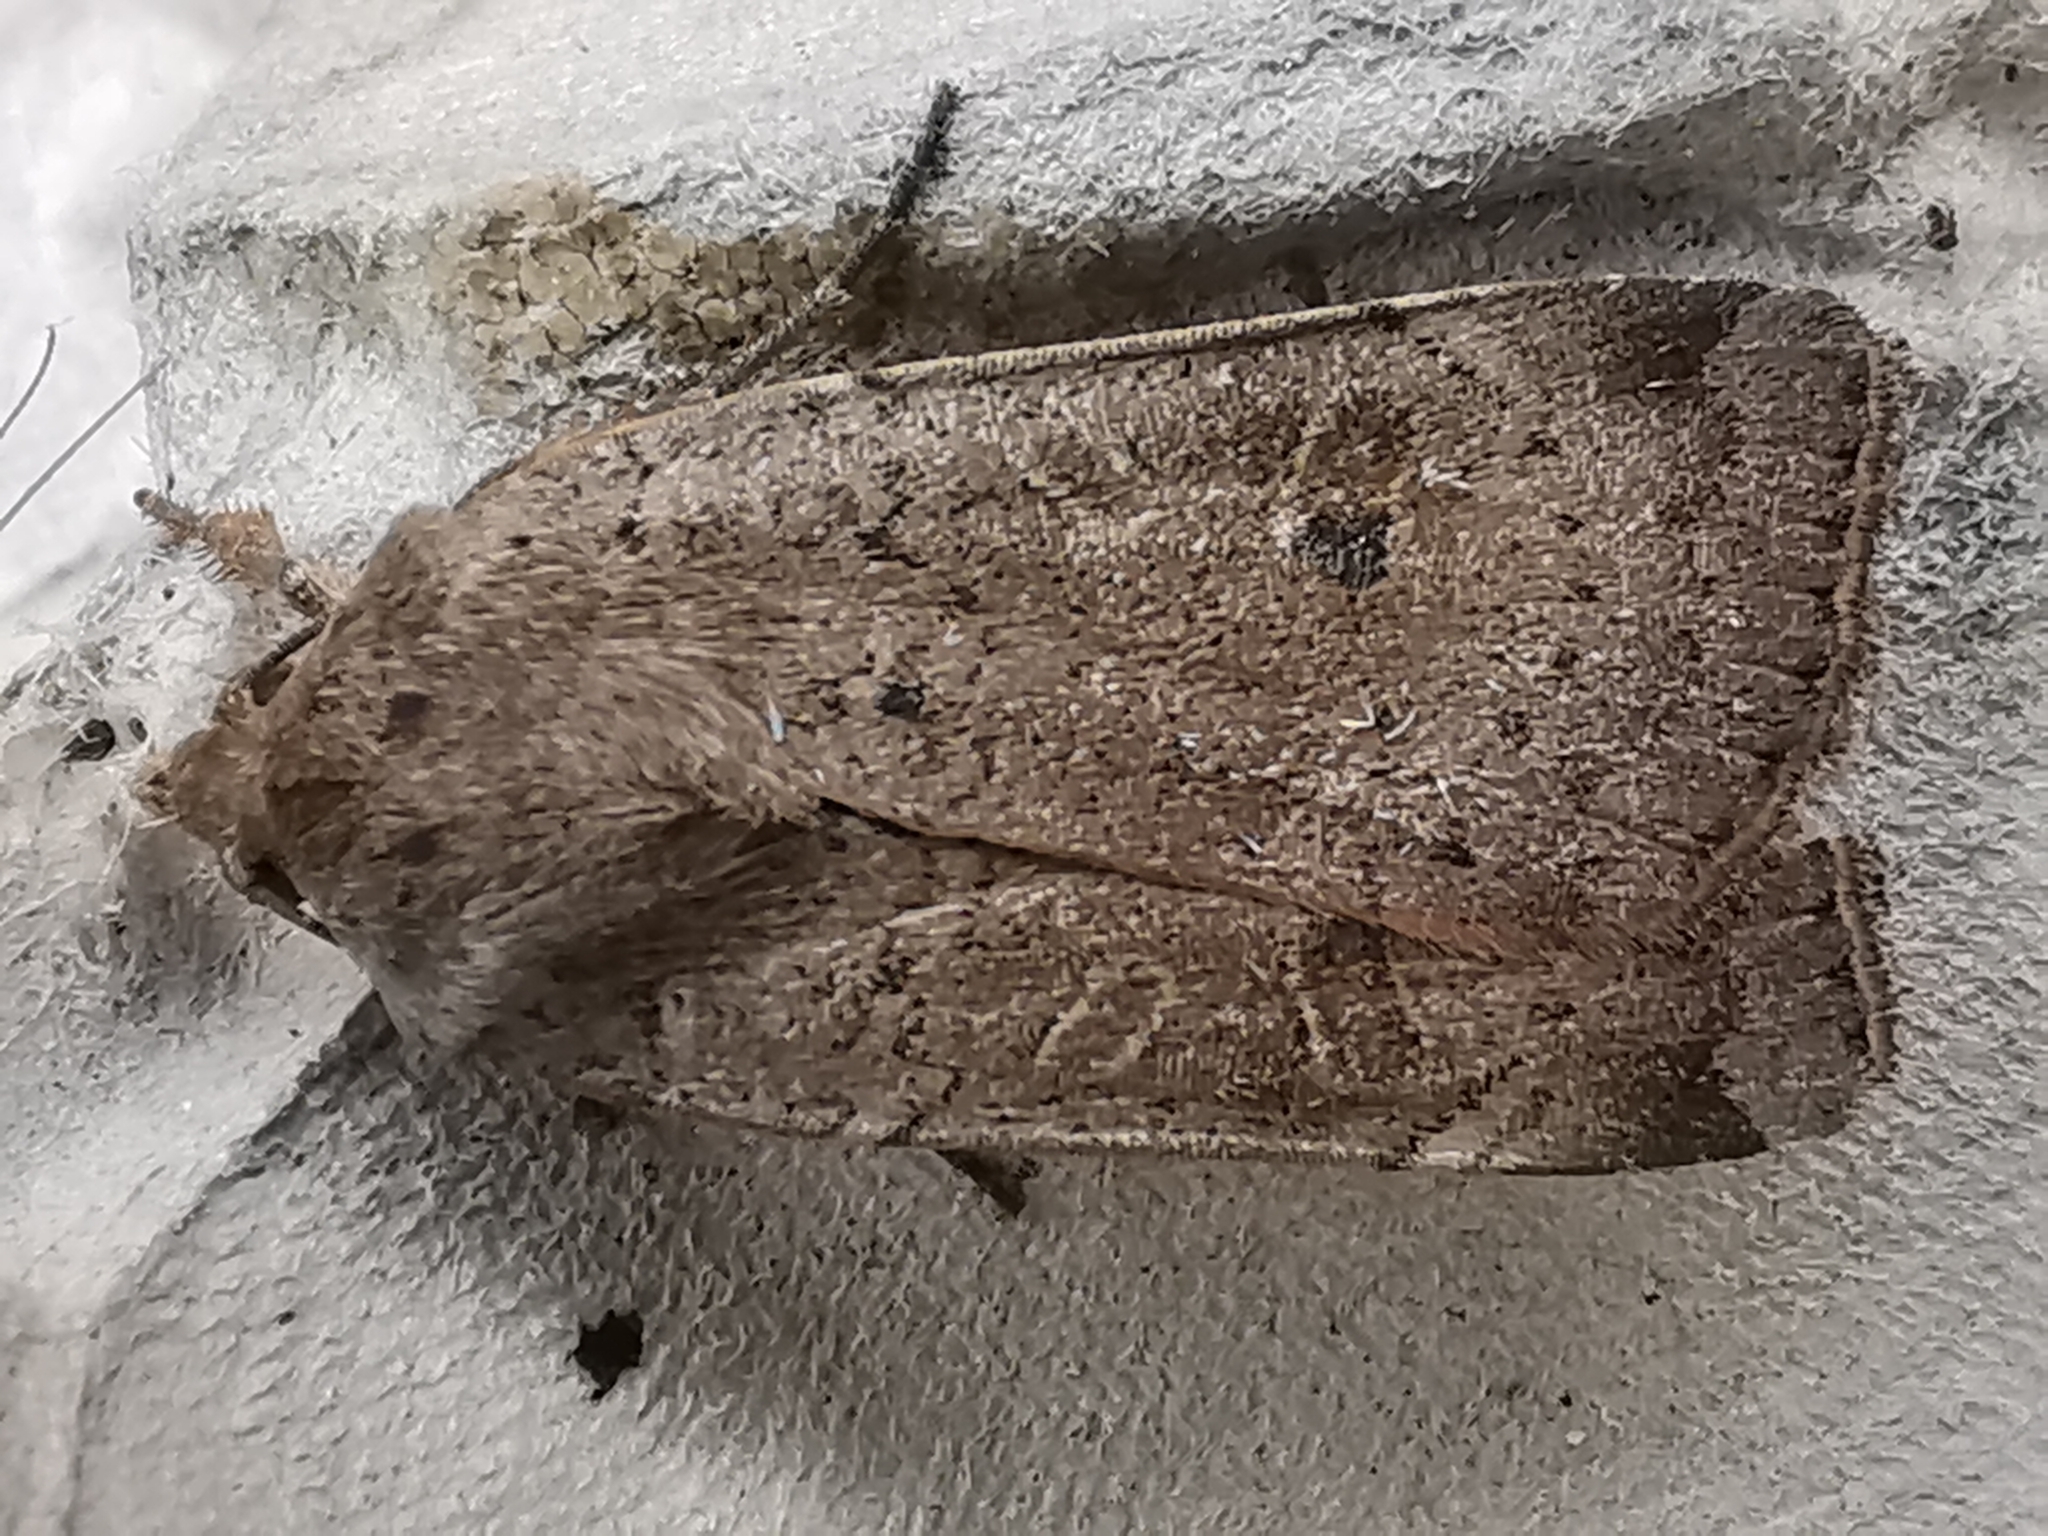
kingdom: Animalia
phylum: Arthropoda
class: Insecta
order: Lepidoptera
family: Noctuidae
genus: Noctua
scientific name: Noctua comes
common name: Lesser yellow underwing
